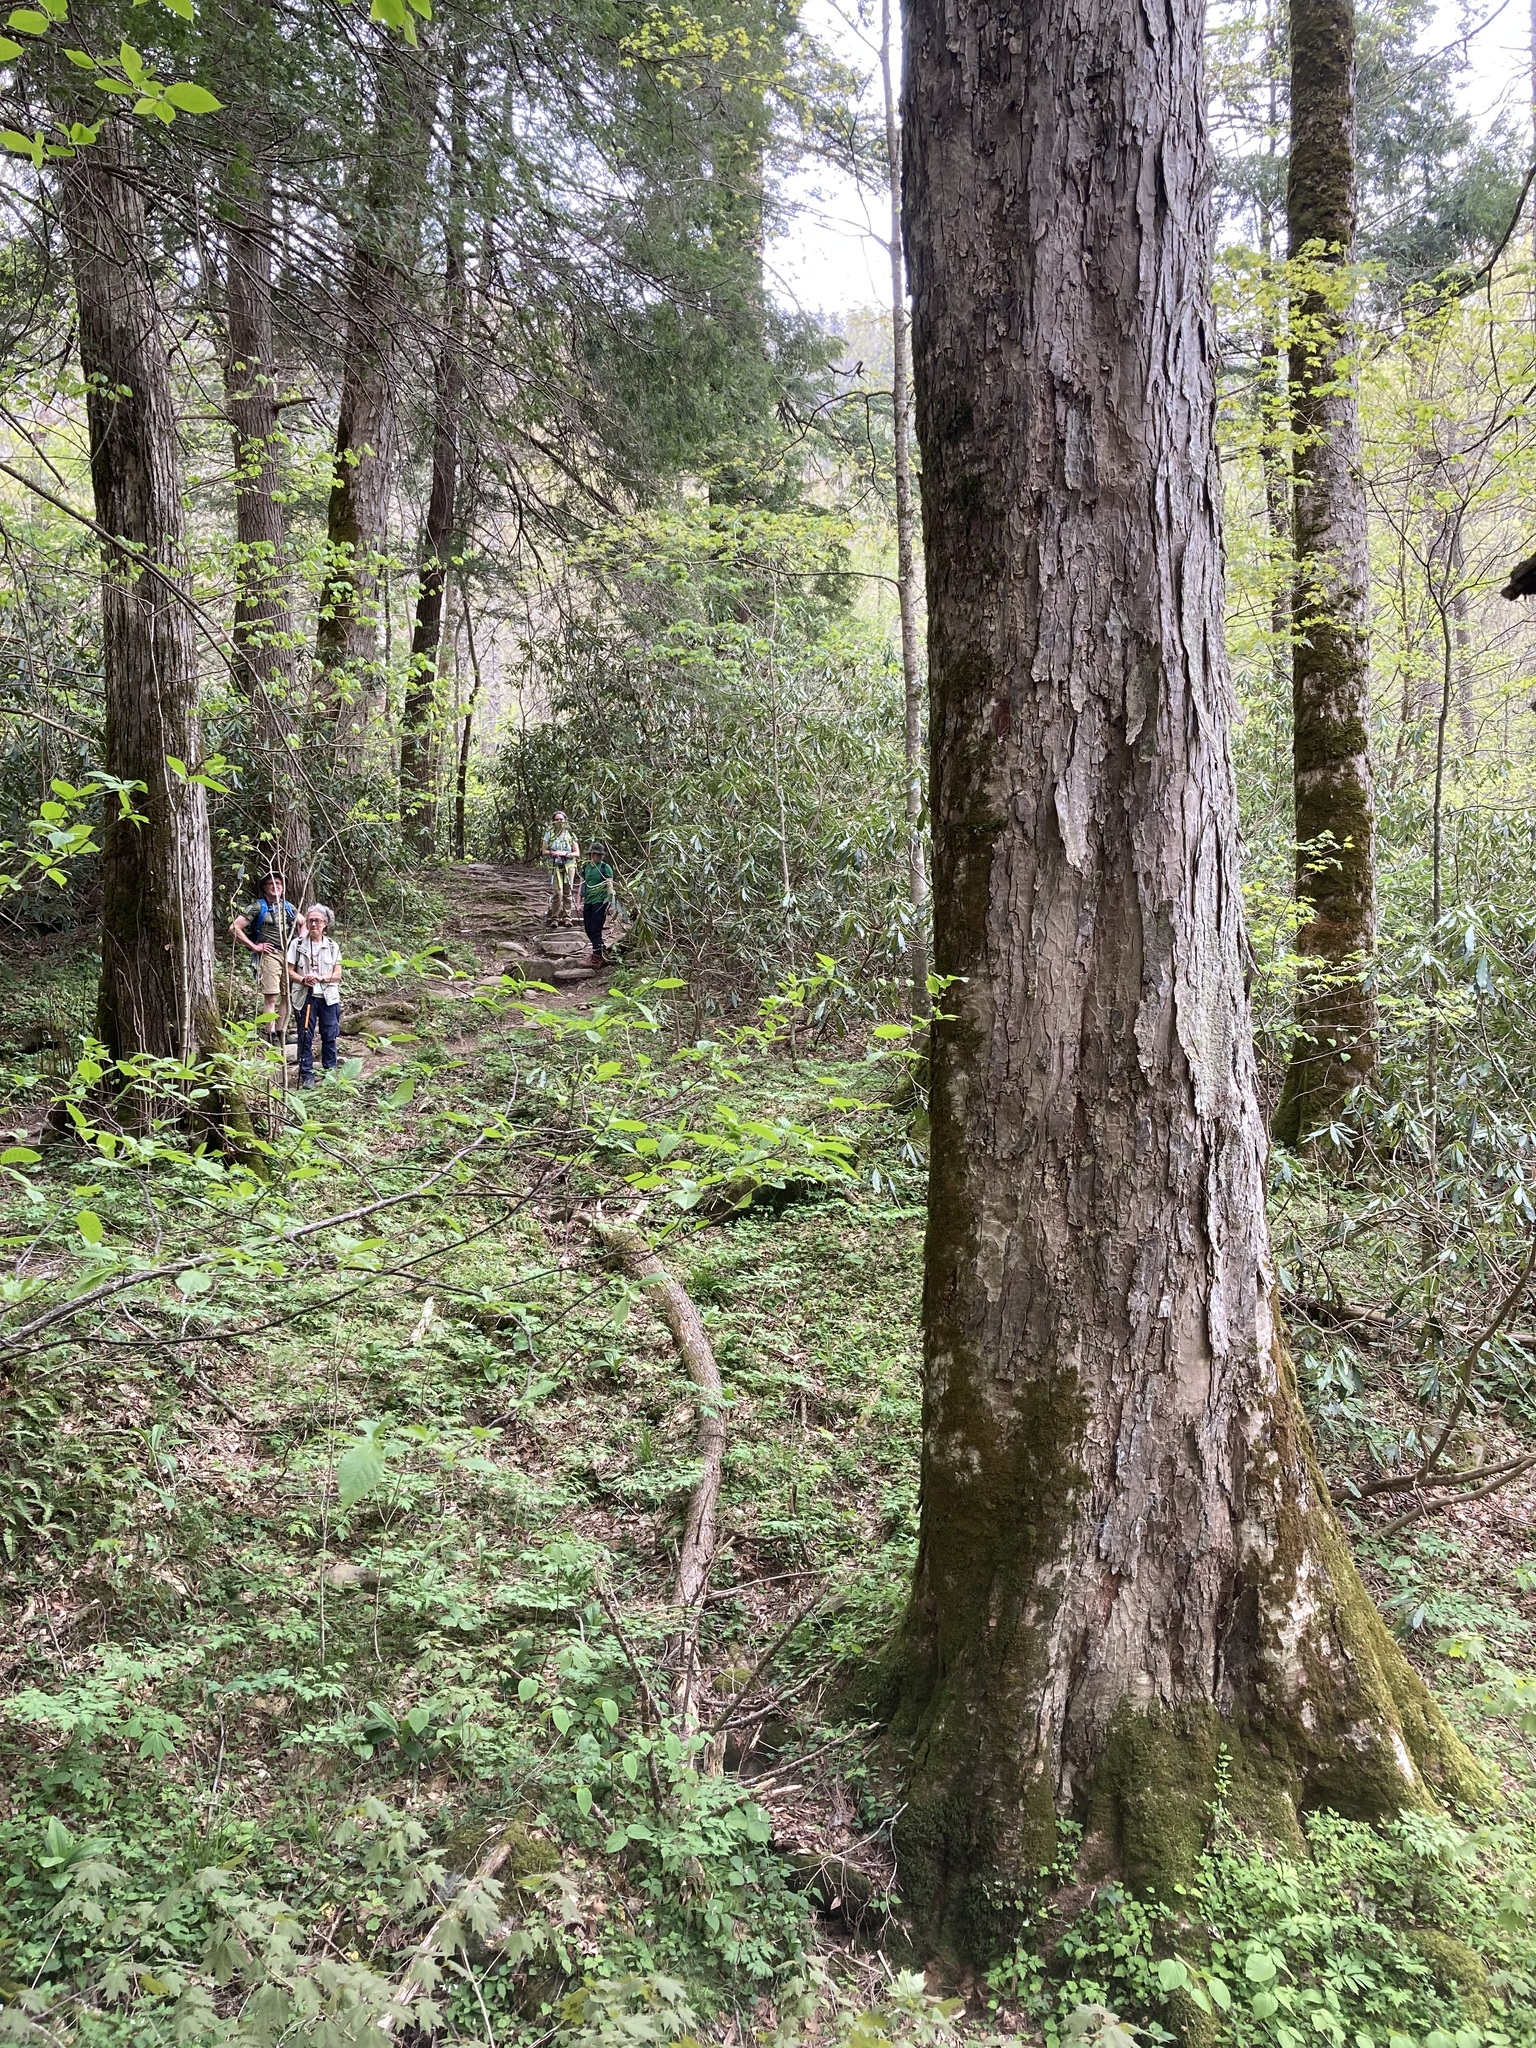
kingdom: Plantae
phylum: Tracheophyta
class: Magnoliopsida
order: Sapindales
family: Sapindaceae
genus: Aesculus
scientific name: Aesculus flava
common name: Yellow buckeye
